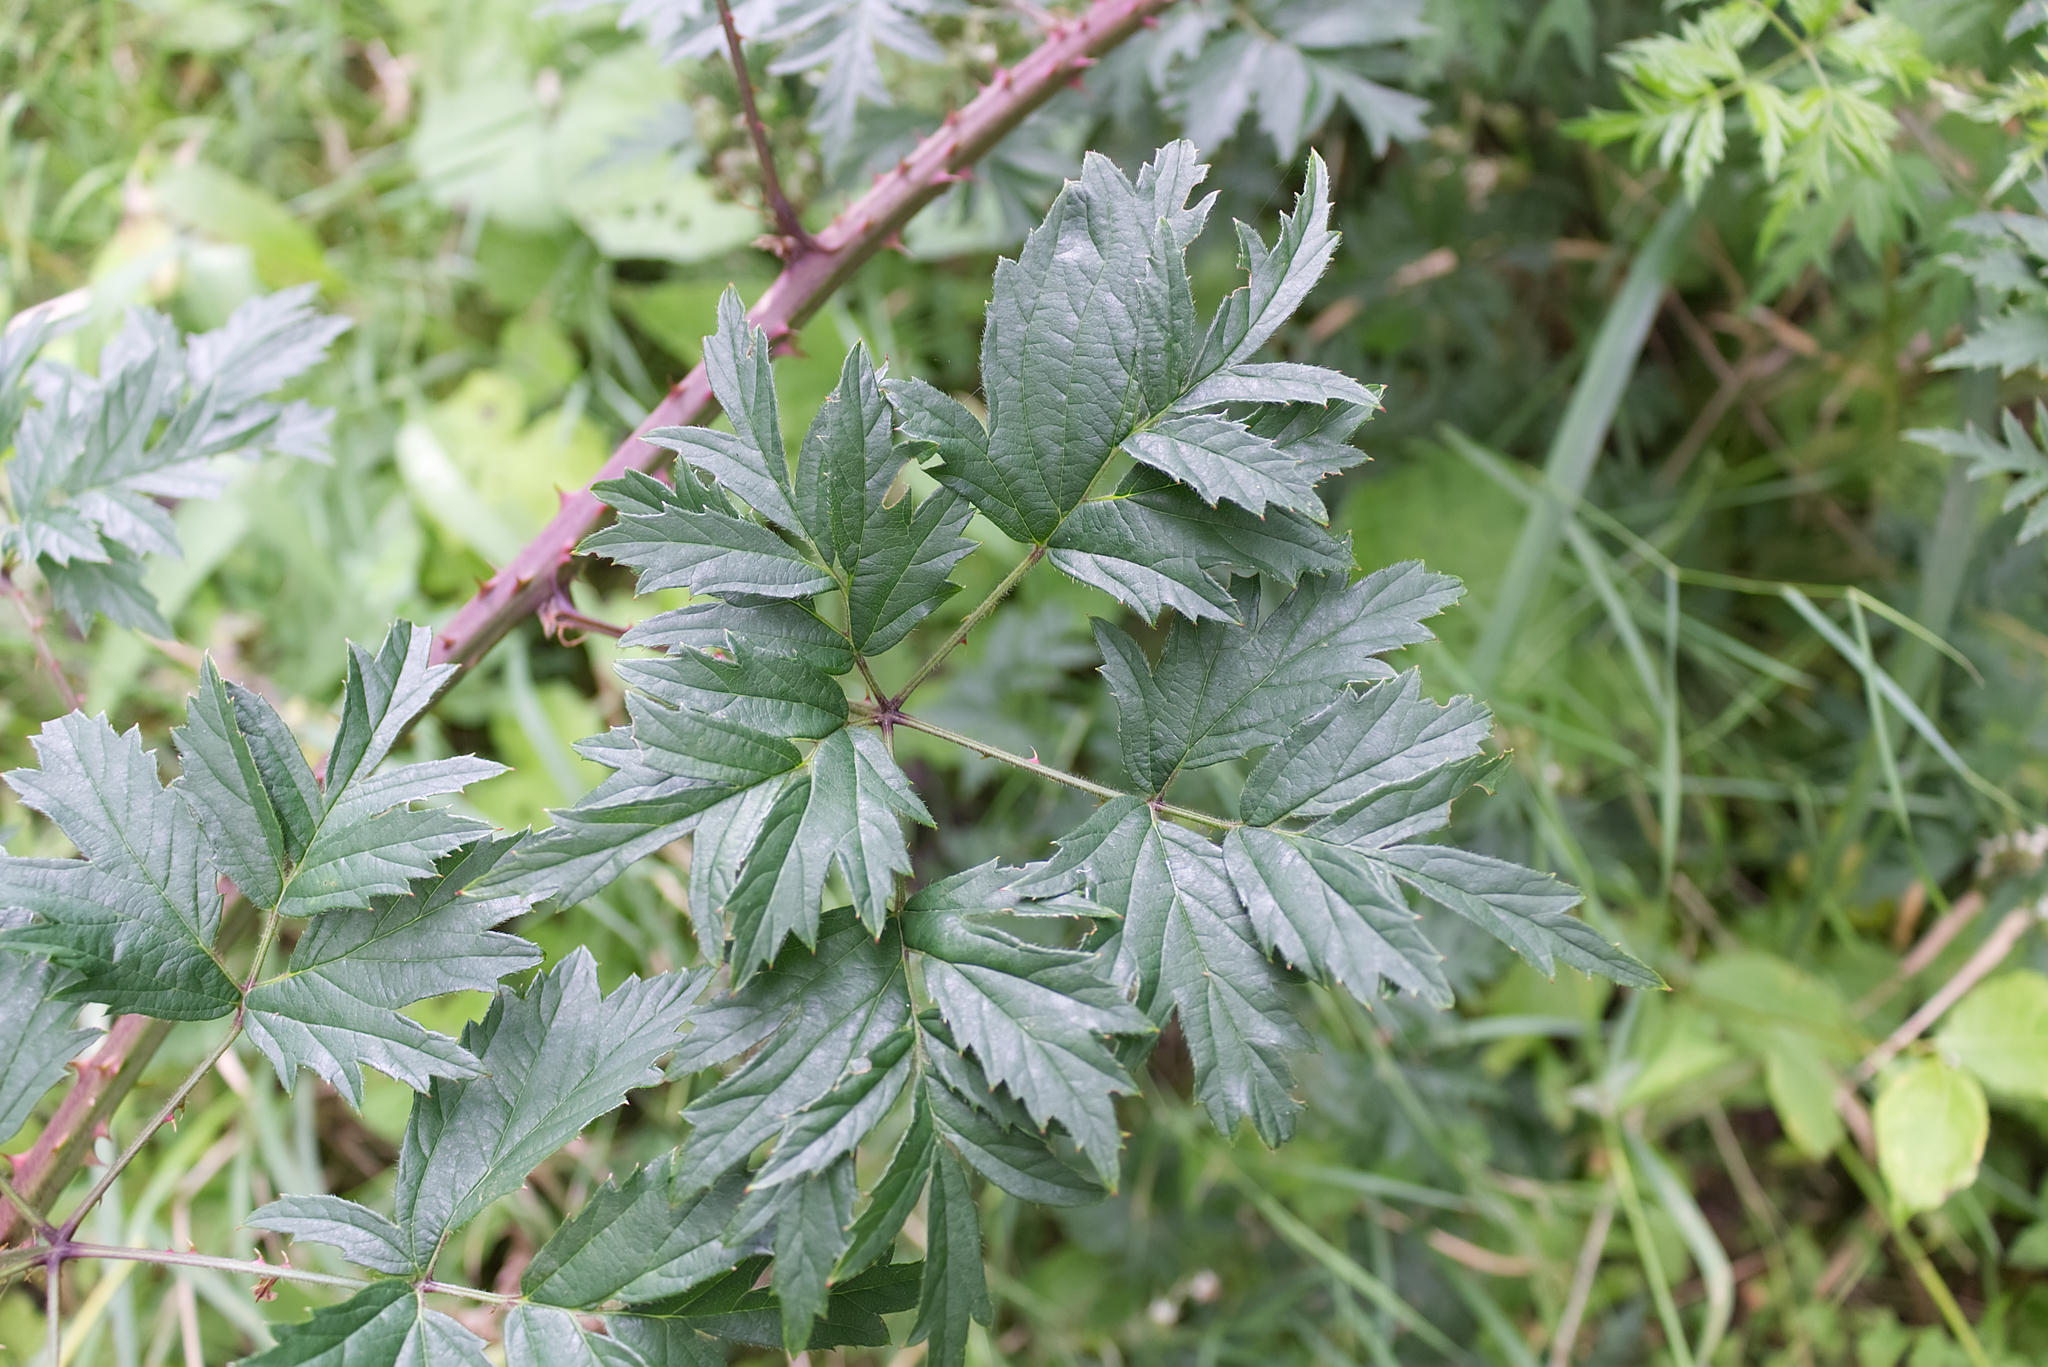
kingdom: Plantae
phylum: Tracheophyta
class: Magnoliopsida
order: Rosales
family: Rosaceae
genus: Rubus
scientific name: Rubus laciniatus
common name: Evergreen blackberry
